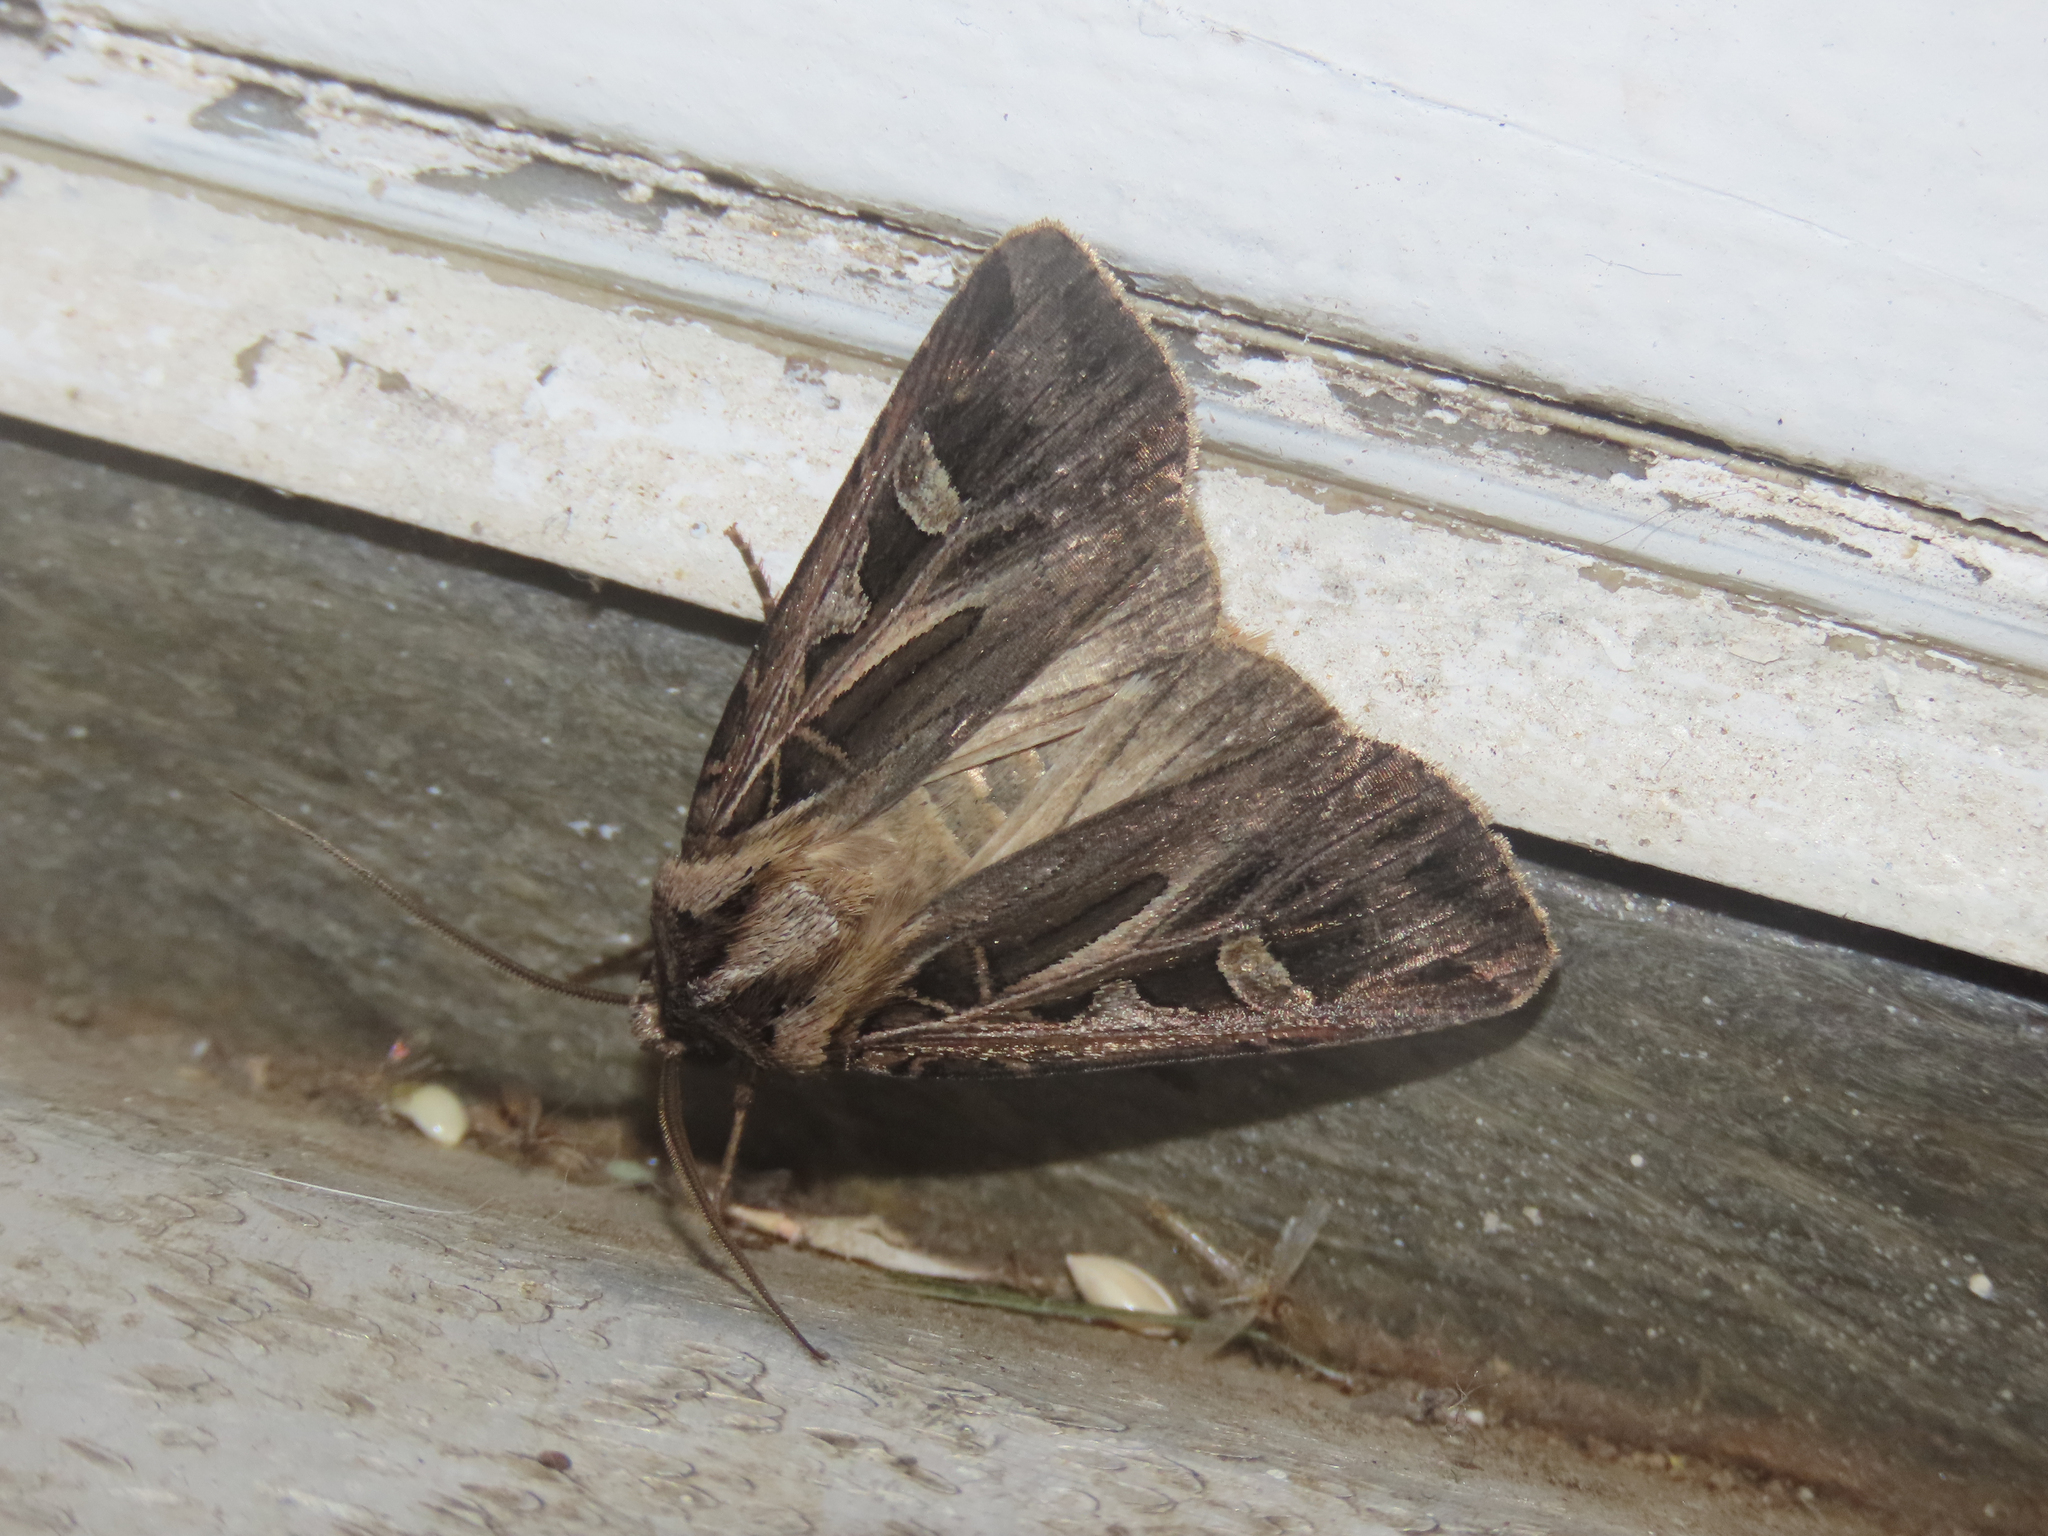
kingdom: Animalia
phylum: Arthropoda
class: Insecta
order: Lepidoptera
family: Noctuidae
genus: Feltia
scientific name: Feltia jaculifera
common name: Dingy cutworm moth
